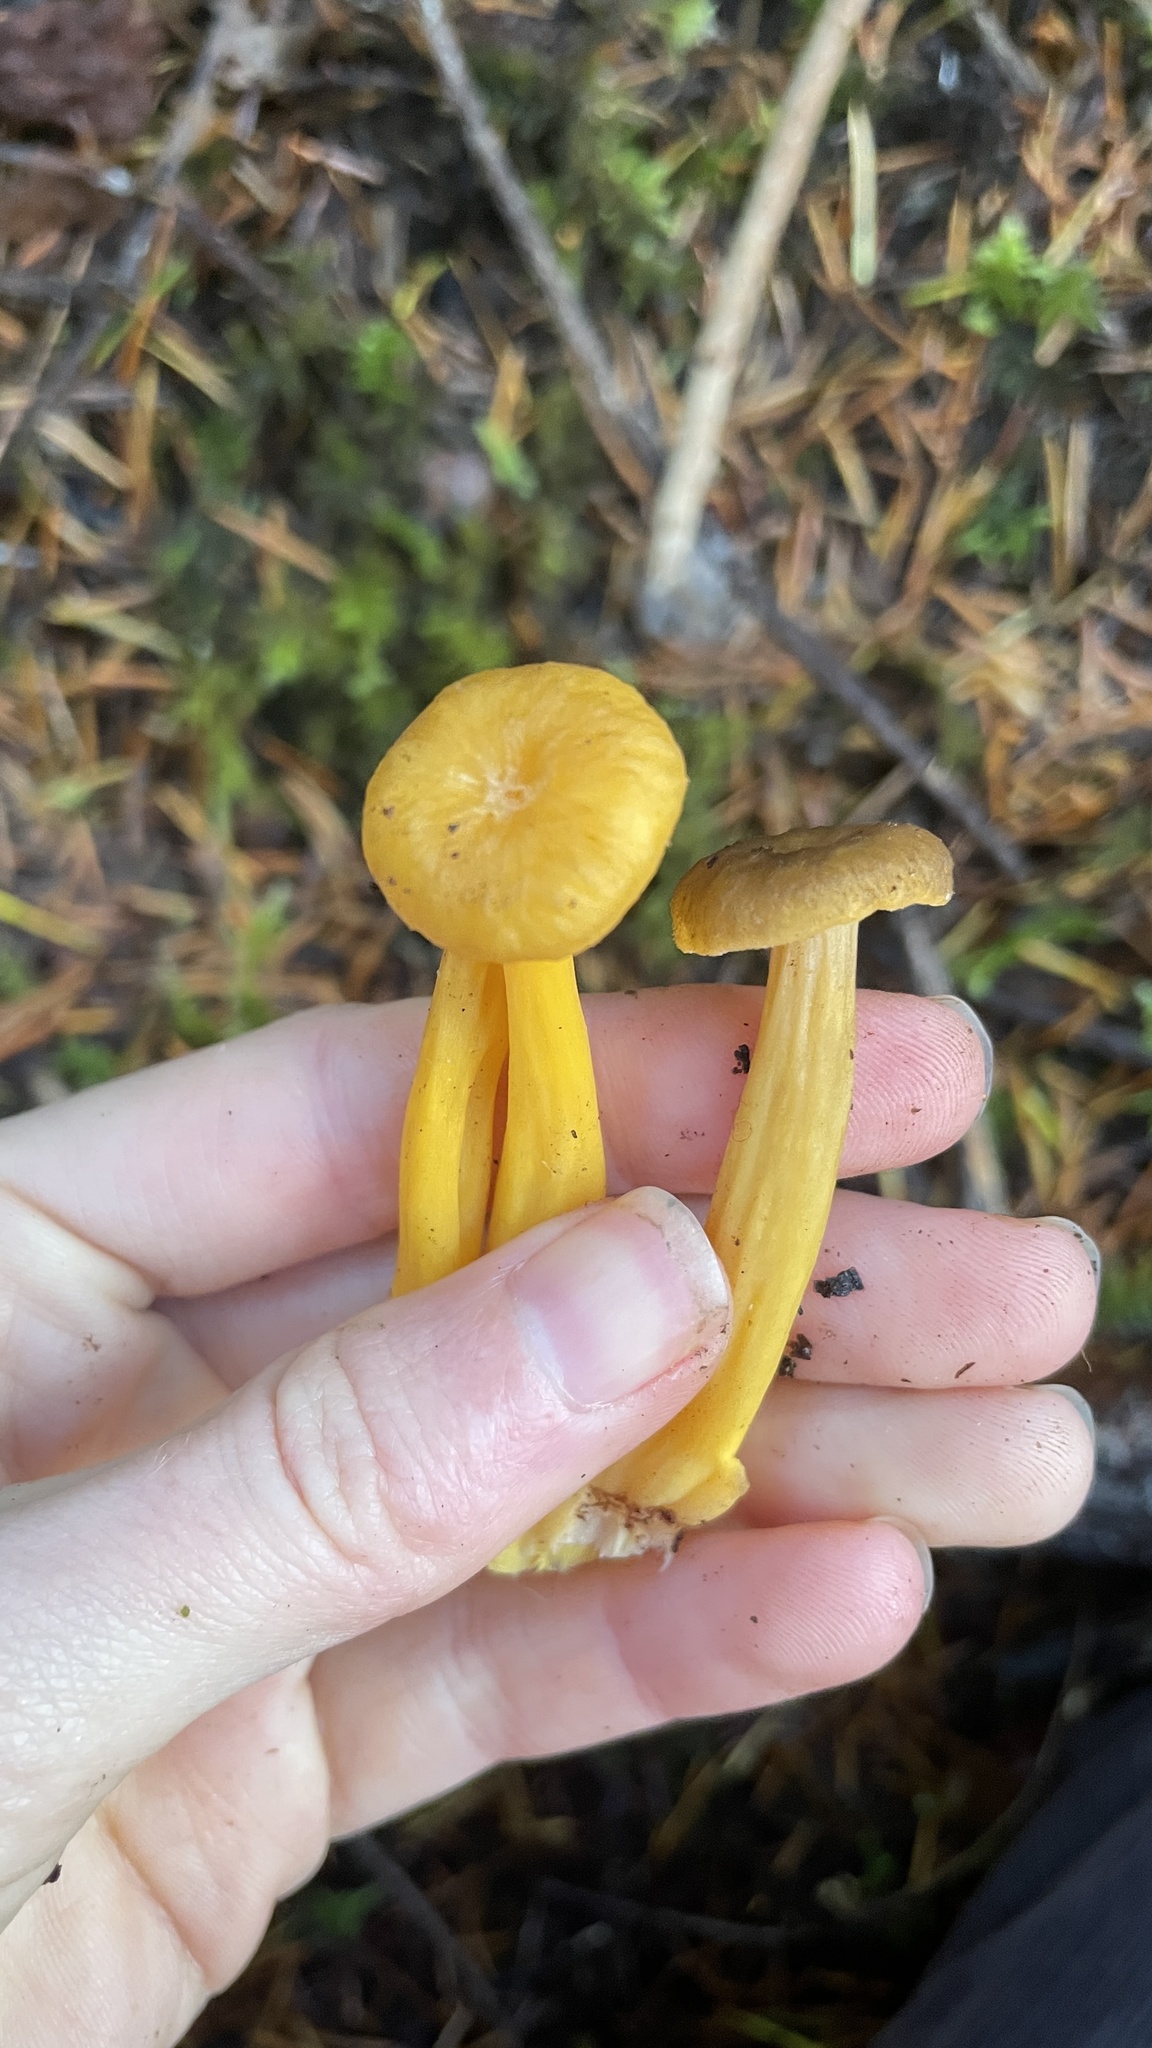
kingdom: Fungi
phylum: Basidiomycota
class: Agaricomycetes
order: Cantharellales
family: Hydnaceae
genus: Craterellus
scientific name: Craterellus tubaeformis
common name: Yellowfoot
